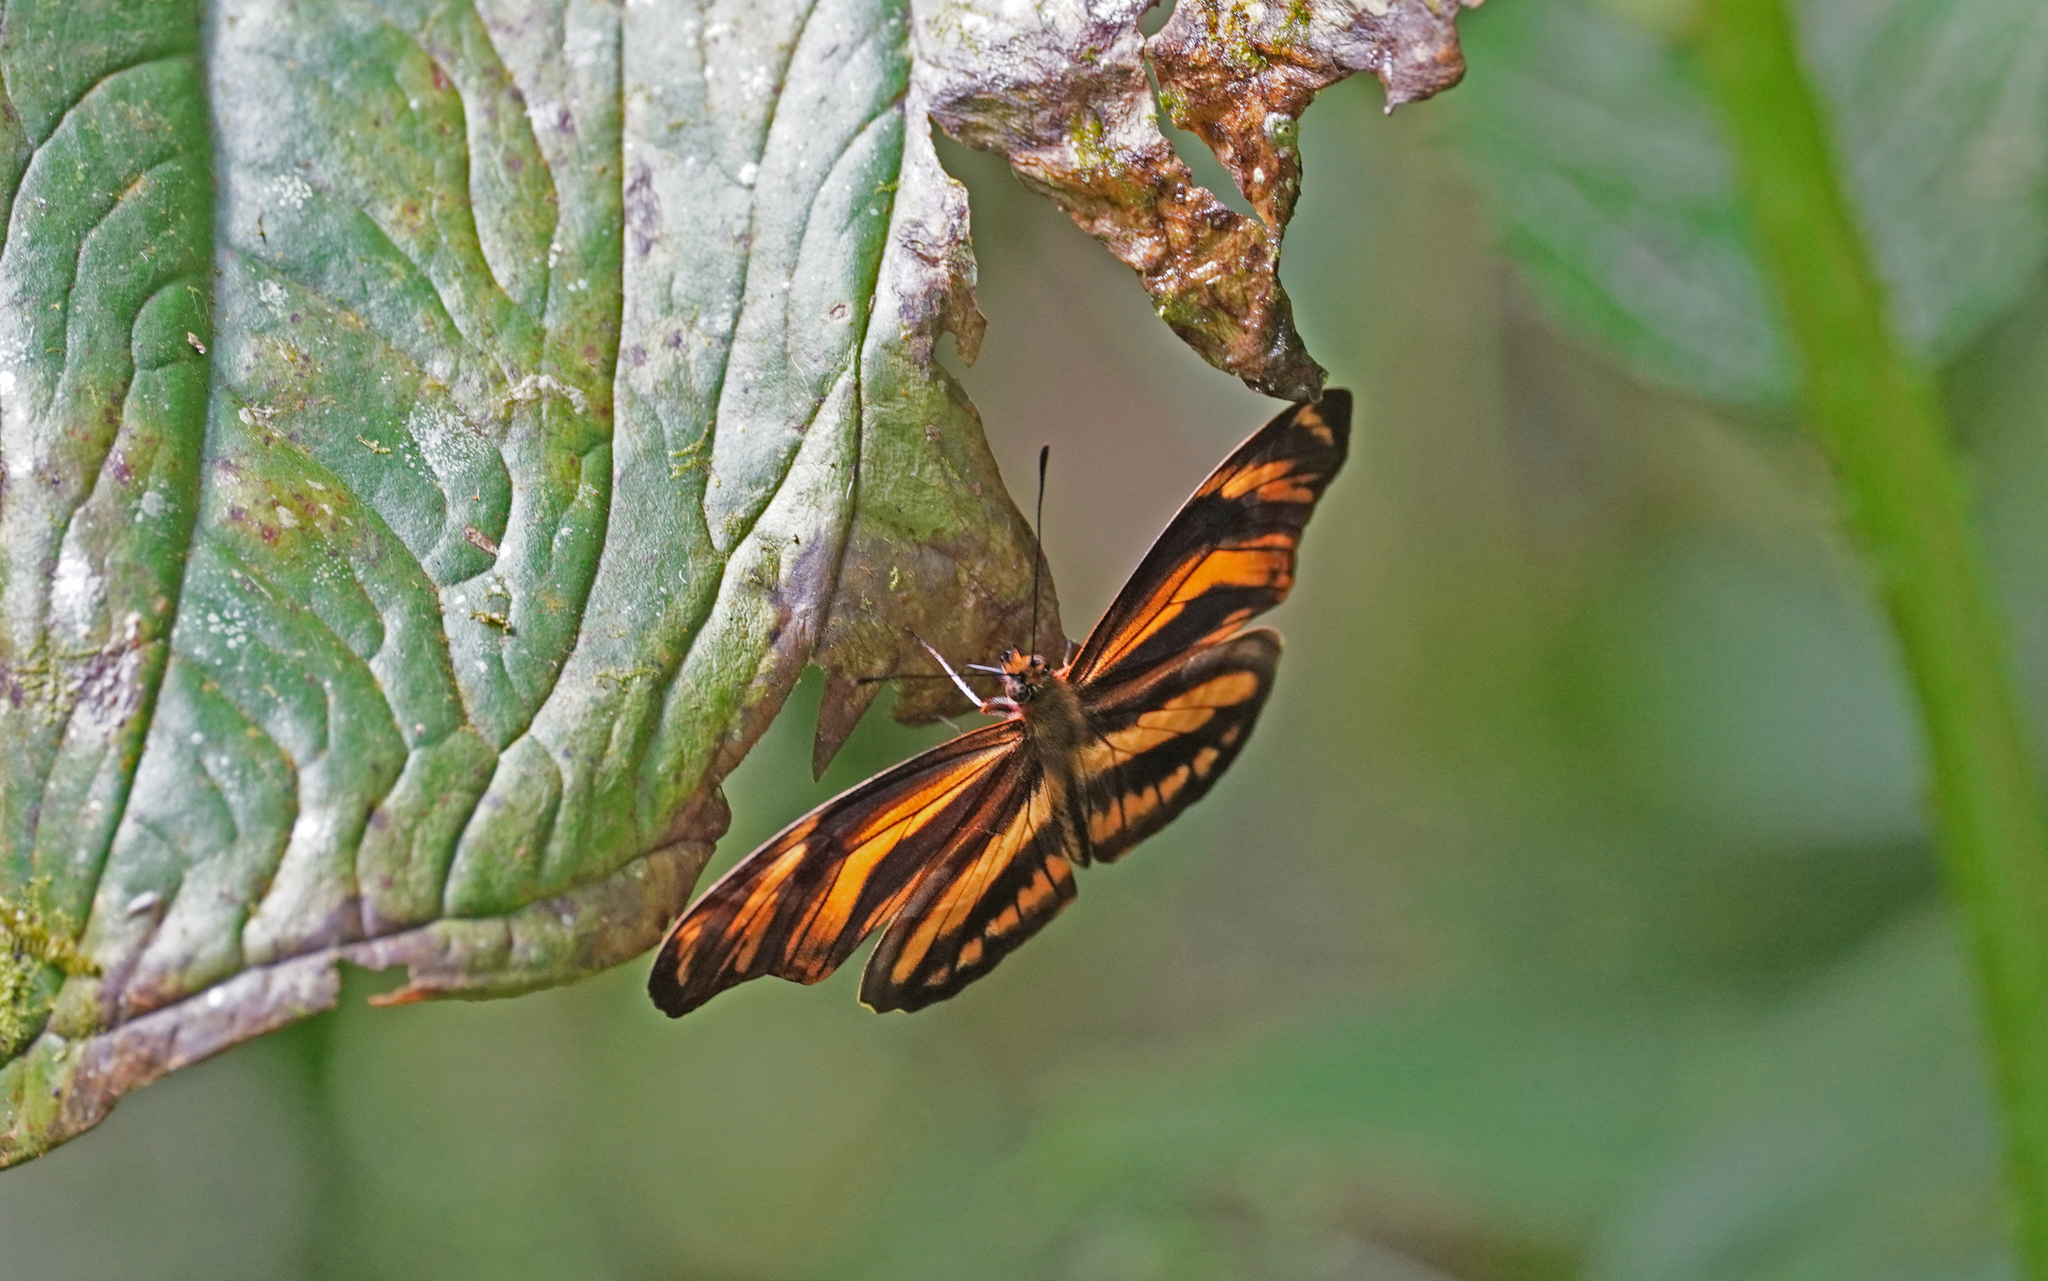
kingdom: Animalia
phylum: Arthropoda
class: Insecta
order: Lepidoptera
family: Nymphalidae
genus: Podotricha
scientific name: Podotricha judith
